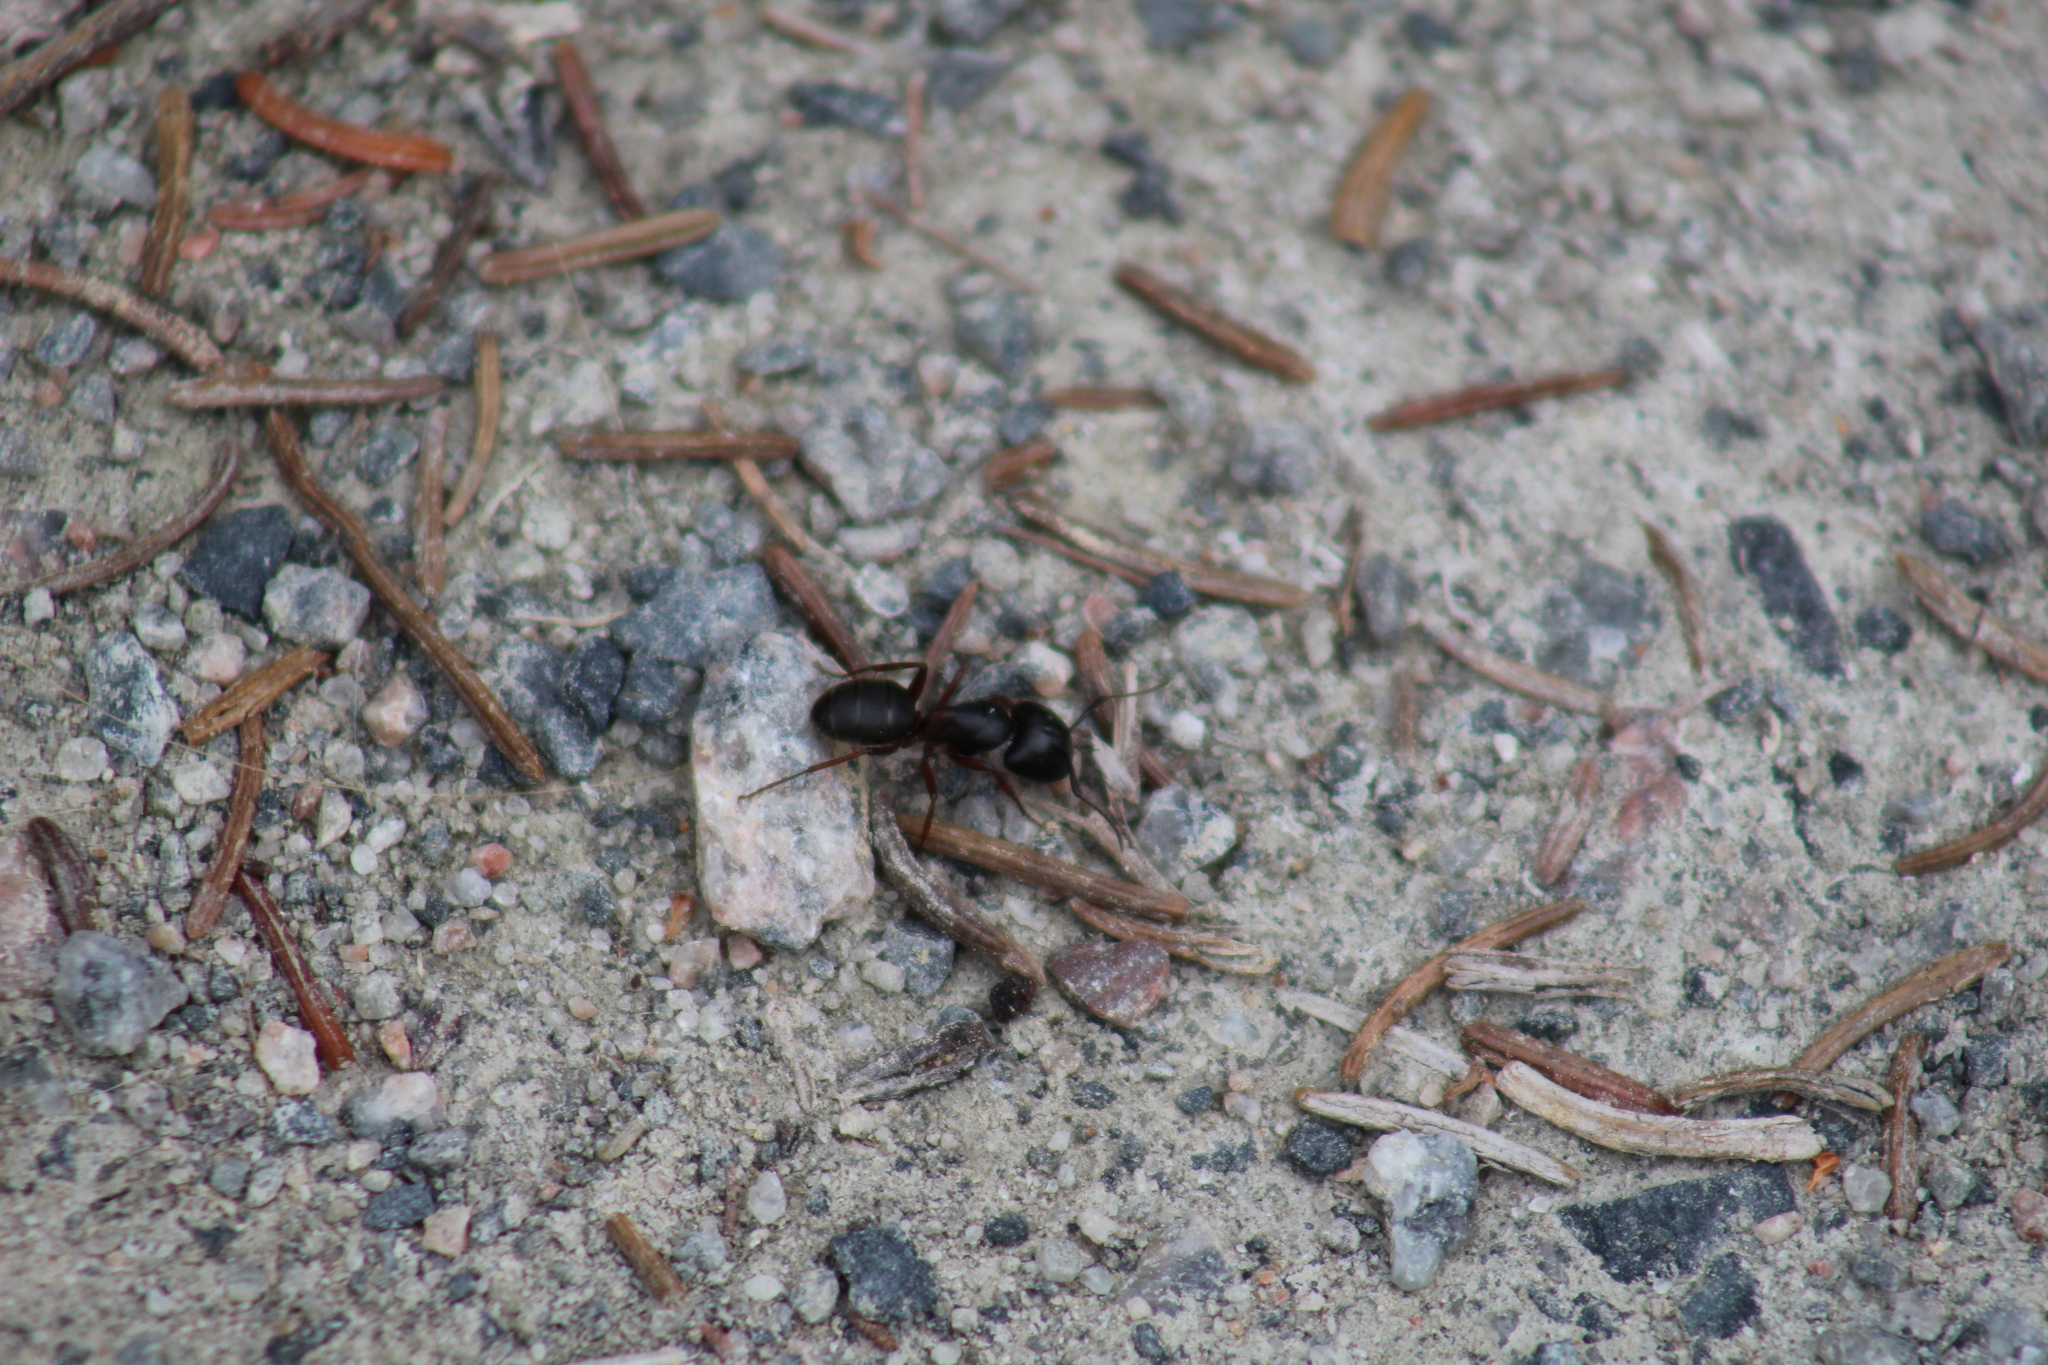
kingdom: Animalia
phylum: Arthropoda
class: Insecta
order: Hymenoptera
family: Formicidae
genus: Camponotus
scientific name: Camponotus herculeanus
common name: Hercules ant
